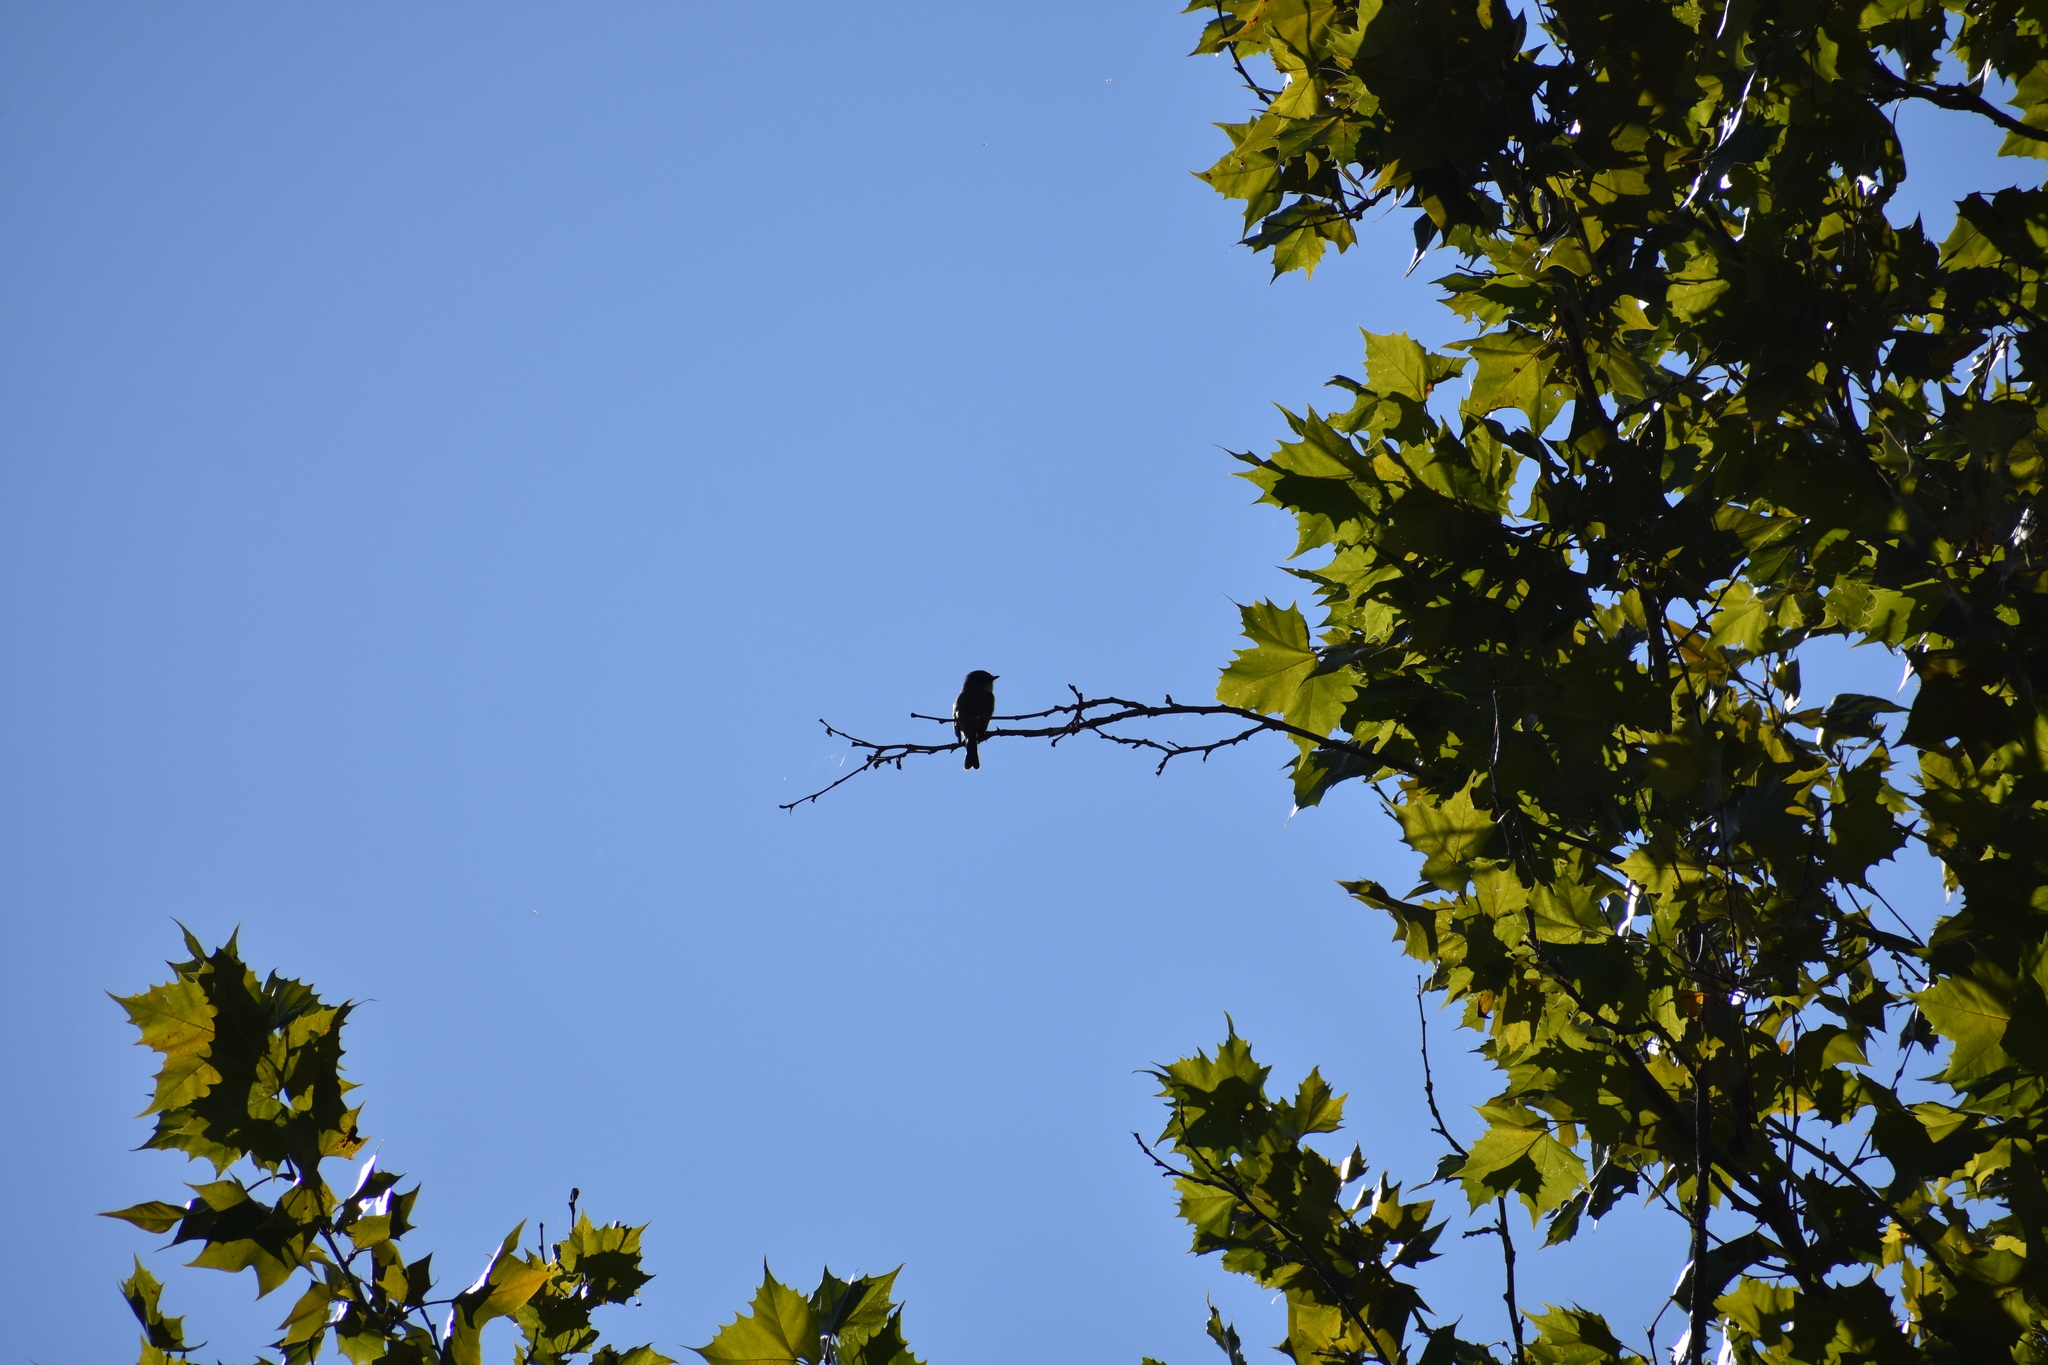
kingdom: Animalia
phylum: Chordata
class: Aves
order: Passeriformes
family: Tyrannidae
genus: Sayornis
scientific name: Sayornis phoebe
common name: Eastern phoebe
